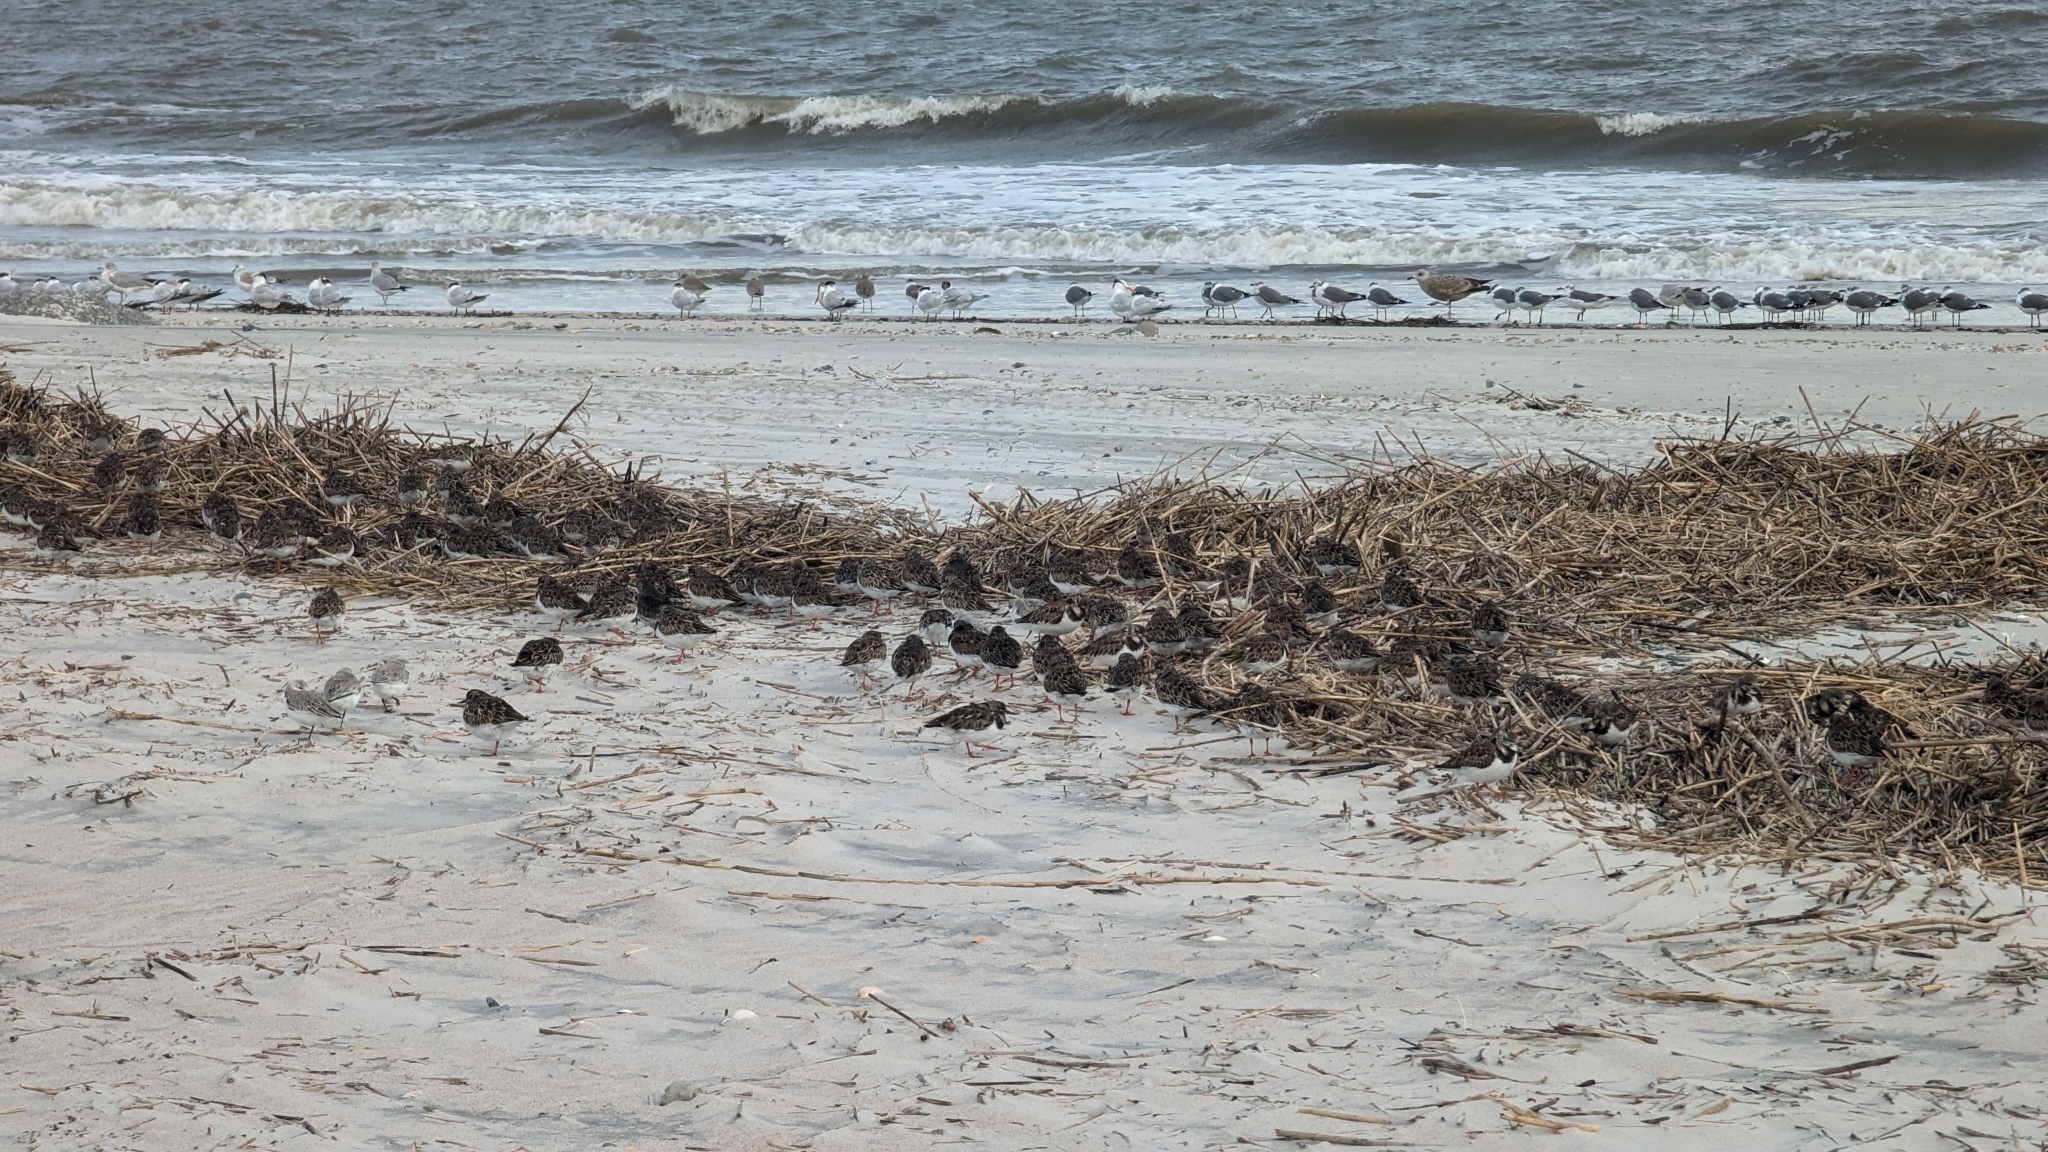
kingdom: Animalia
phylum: Chordata
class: Aves
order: Charadriiformes
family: Scolopacidae
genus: Arenaria
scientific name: Arenaria interpres
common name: Ruddy turnstone
